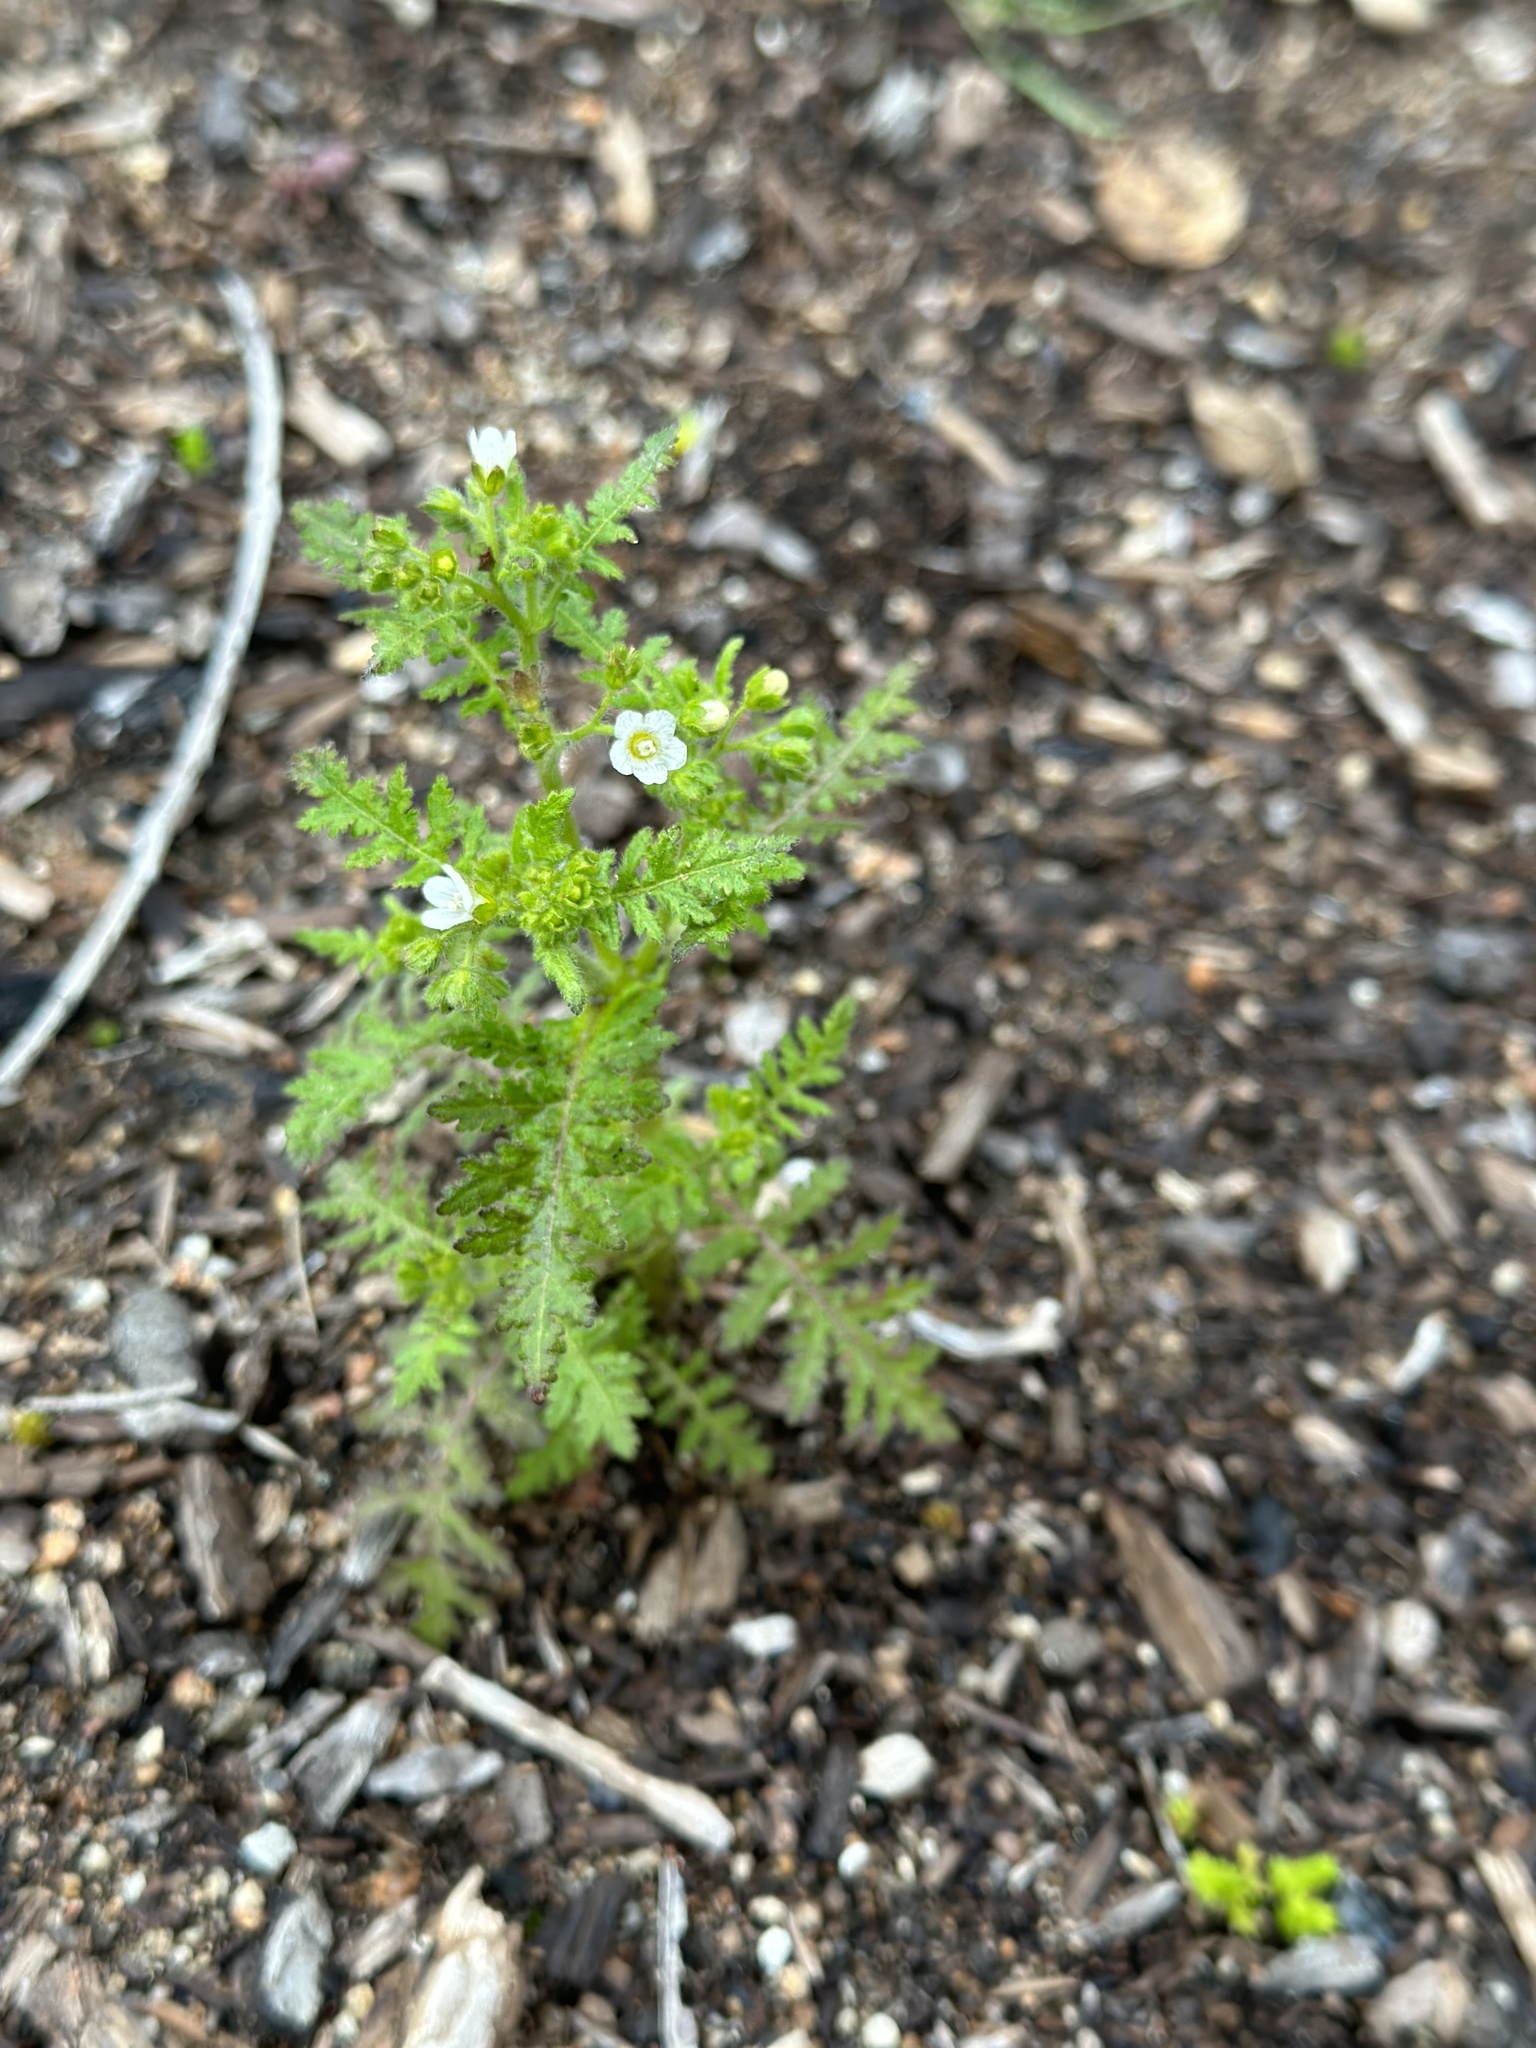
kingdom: Plantae
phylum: Tracheophyta
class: Magnoliopsida
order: Boraginales
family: Hydrophyllaceae
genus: Eucrypta
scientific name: Eucrypta chrysanthemifolia
